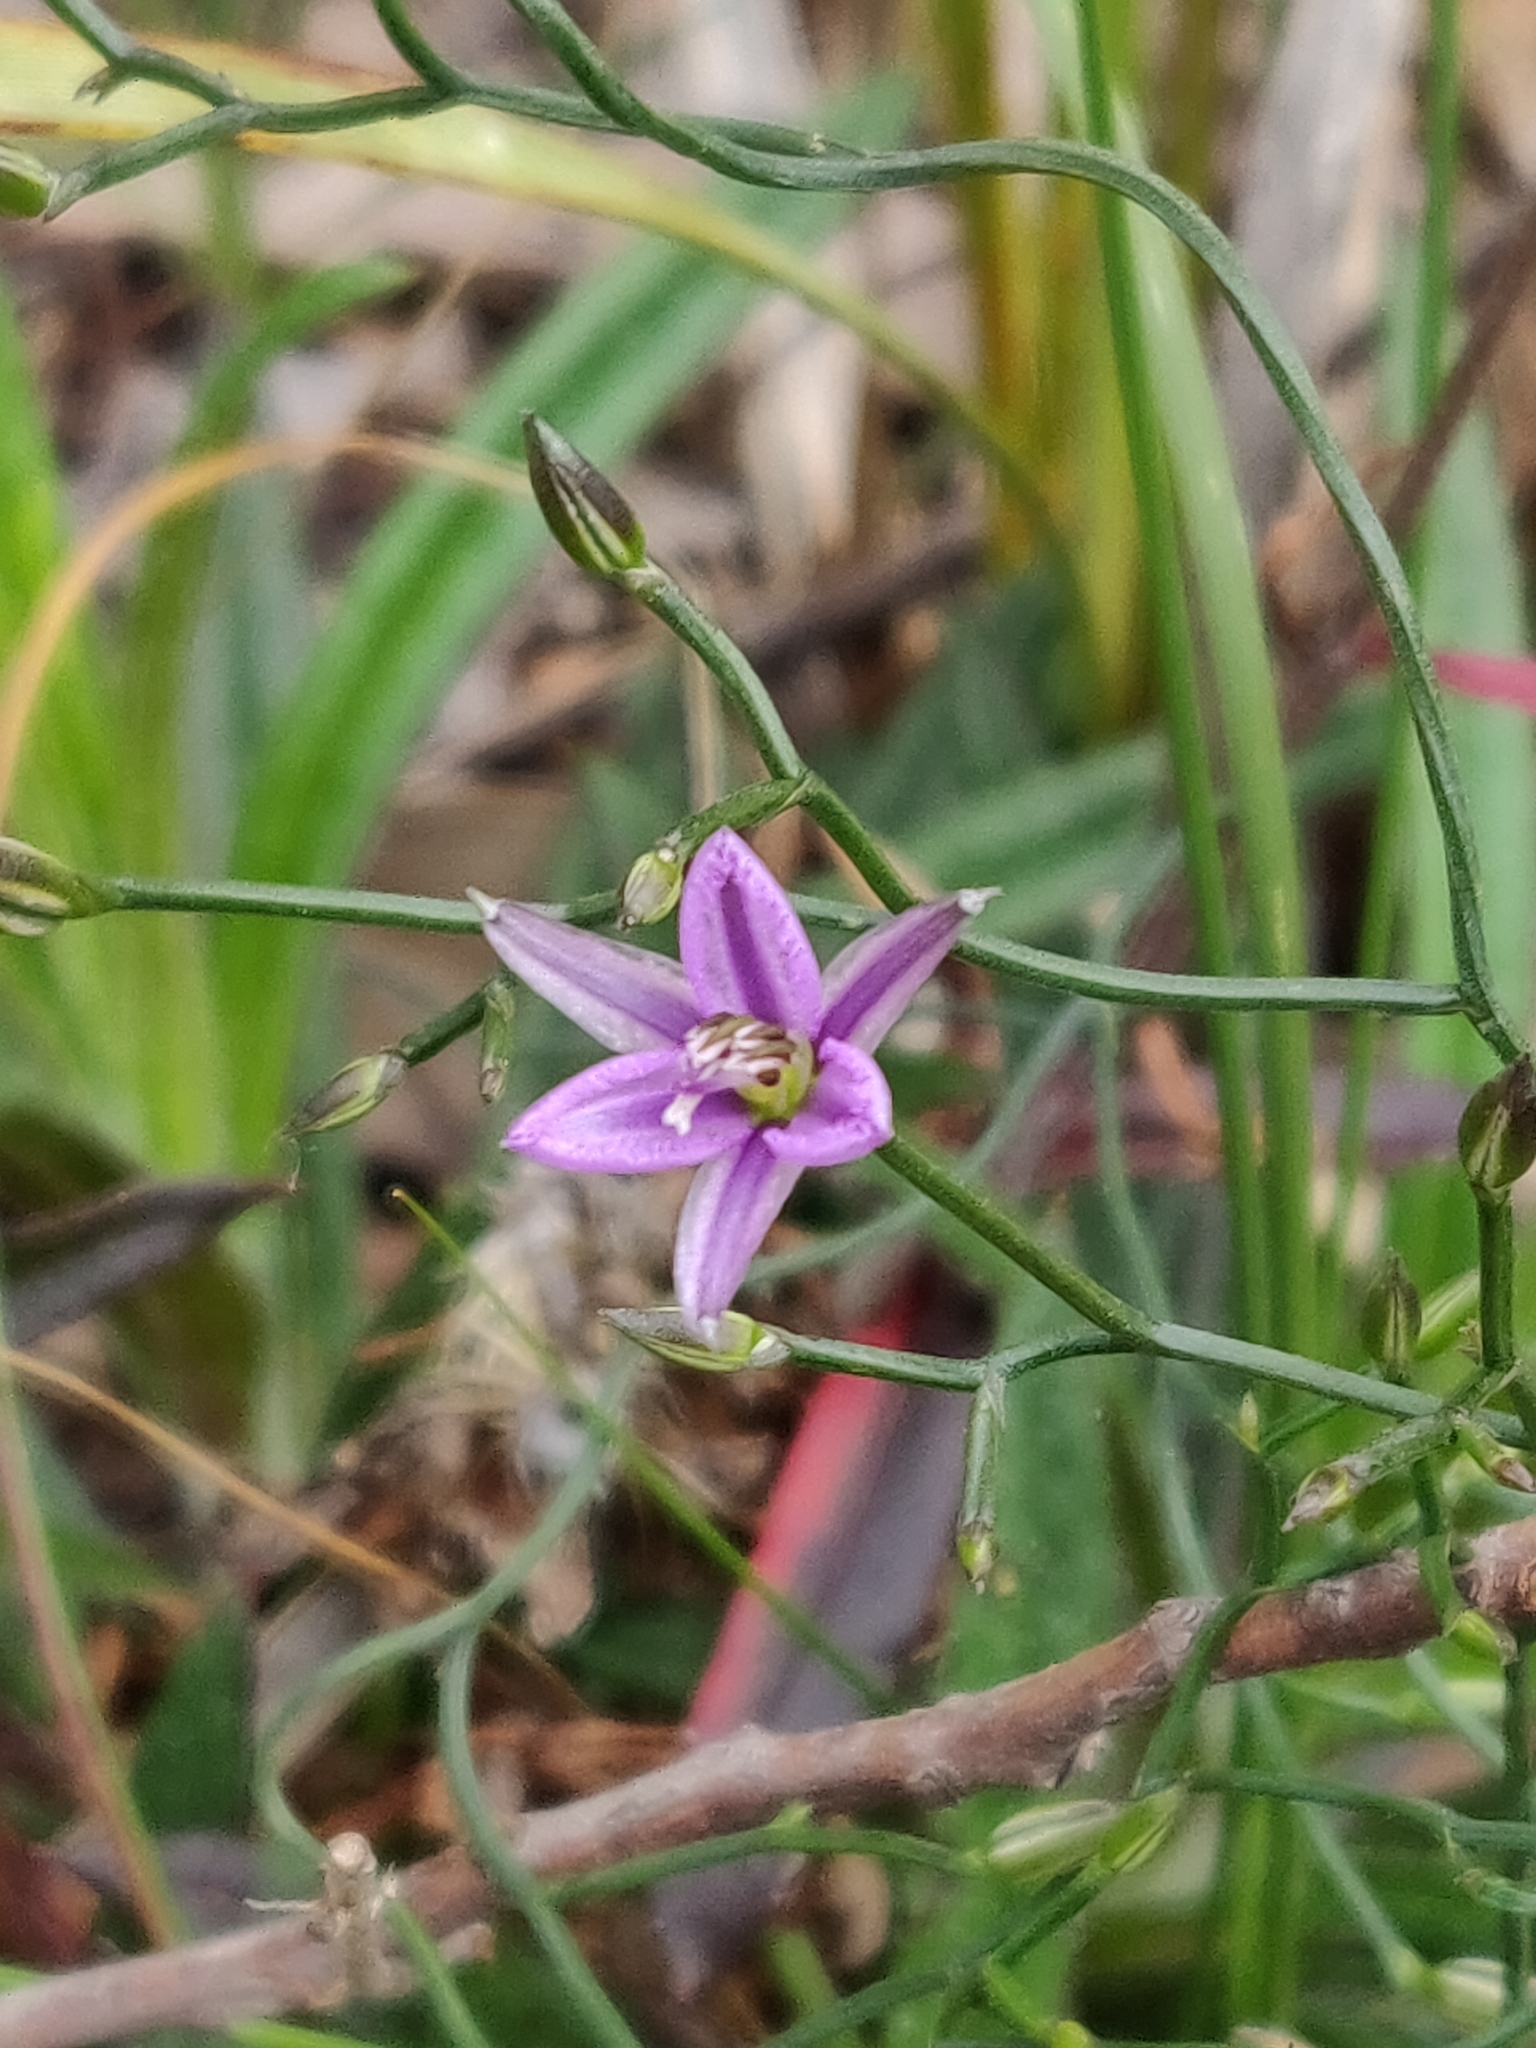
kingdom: Plantae
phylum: Tracheophyta
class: Liliopsida
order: Asparagales
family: Asparagaceae
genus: Thysanotus
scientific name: Thysanotus patersonii
